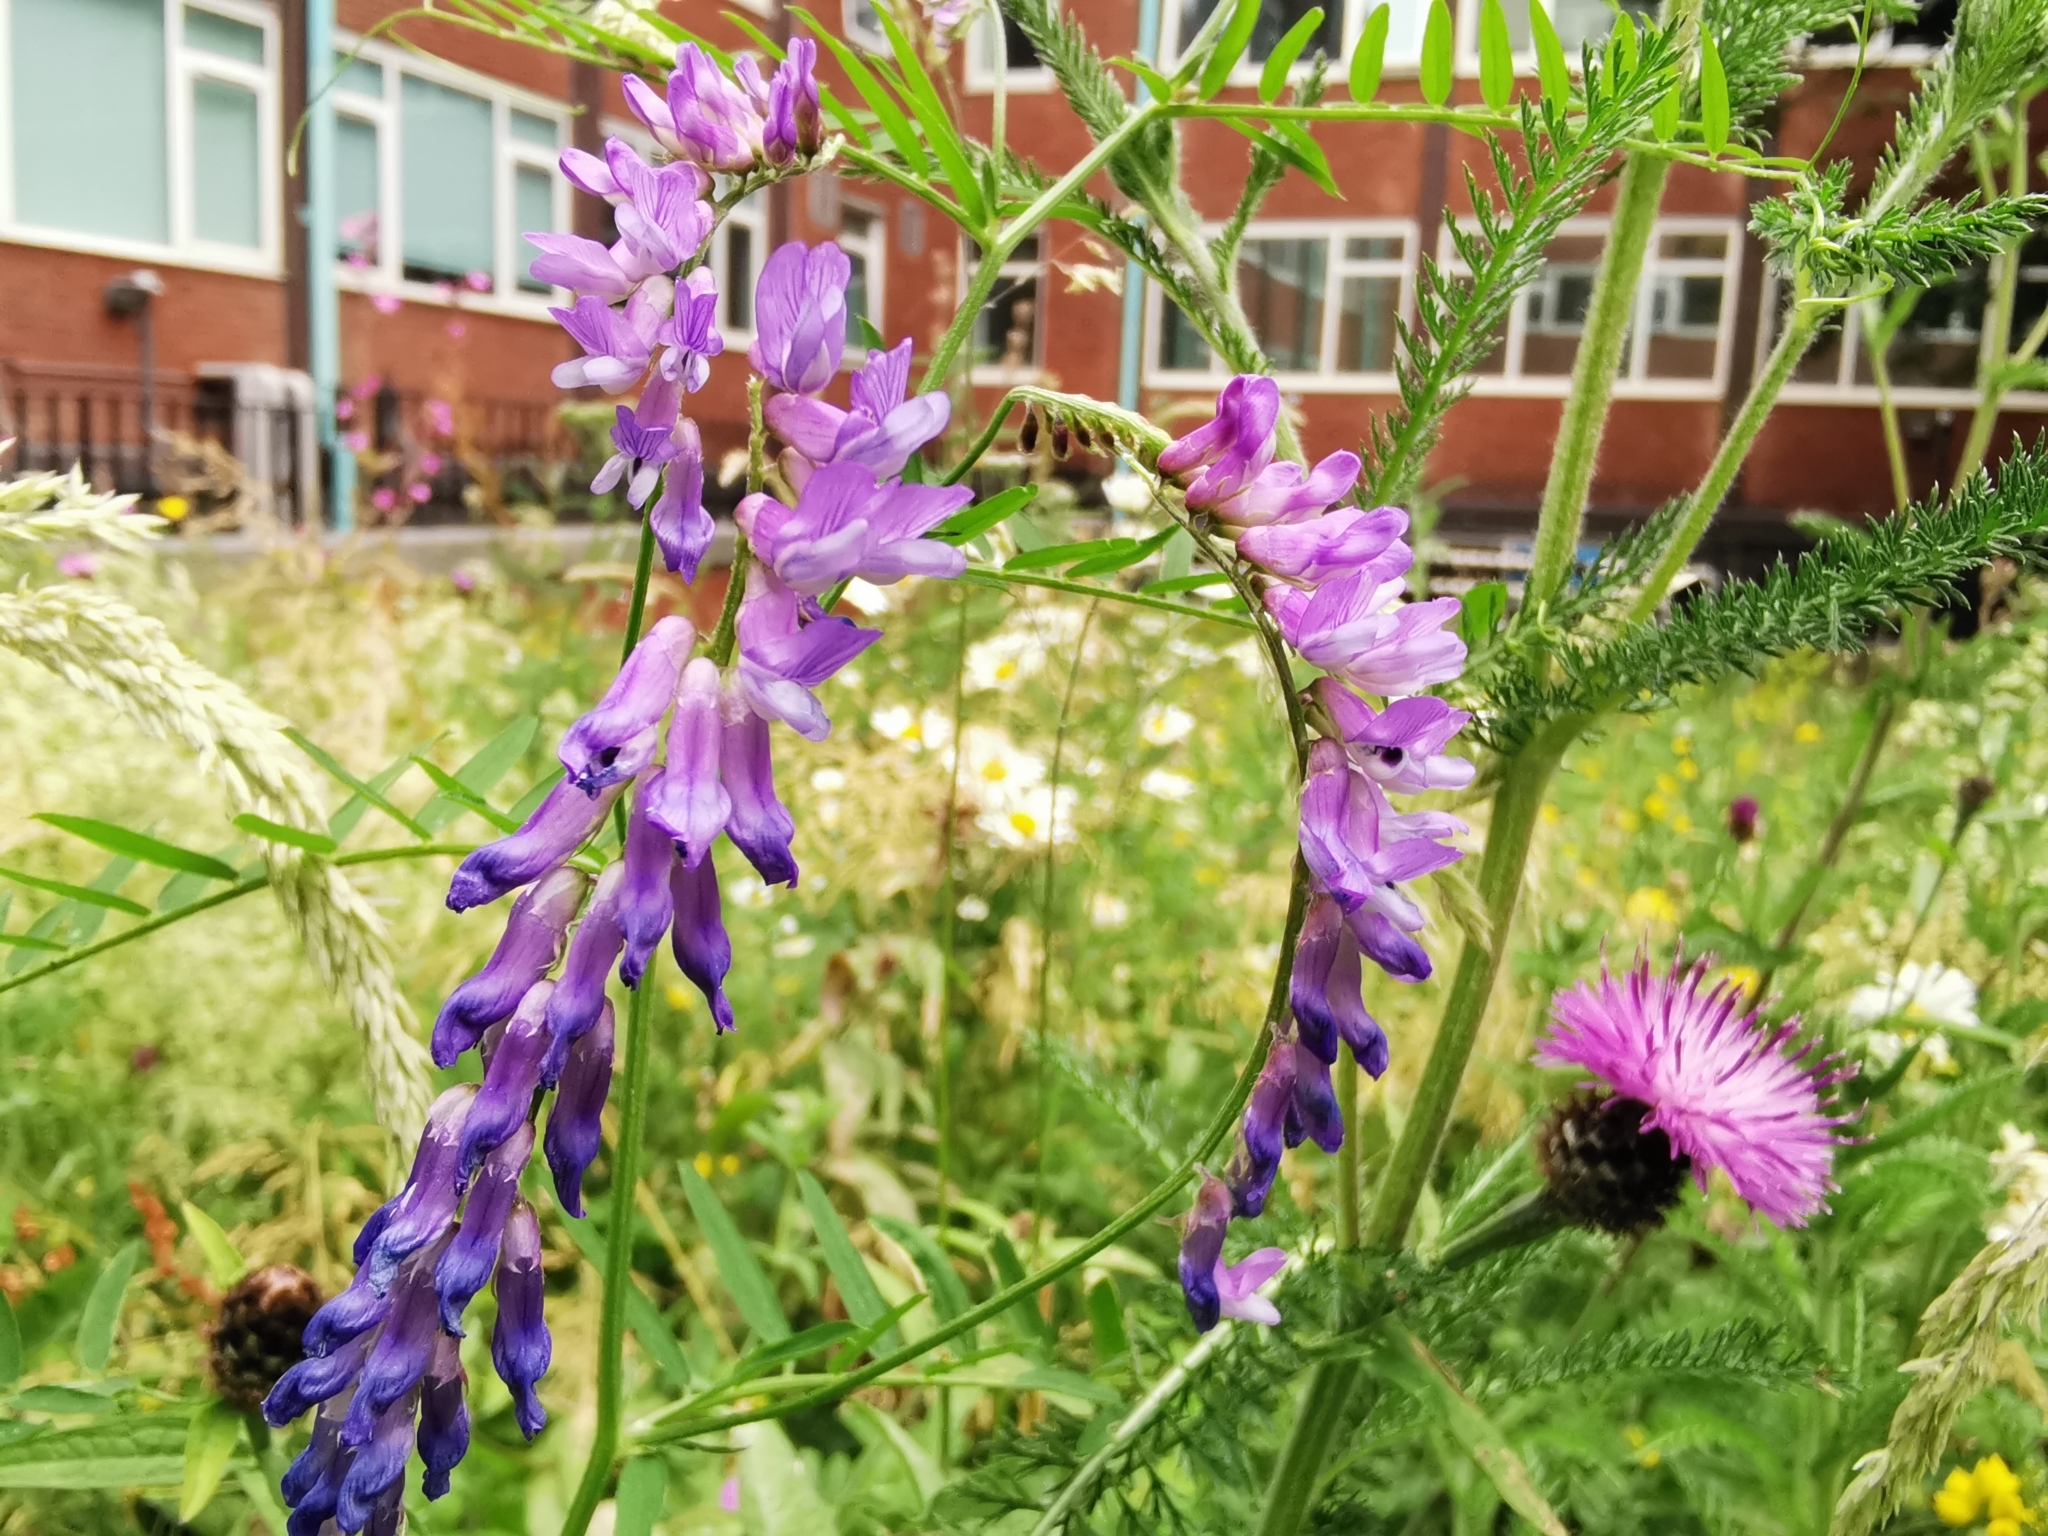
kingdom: Plantae
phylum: Tracheophyta
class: Magnoliopsida
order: Fabales
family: Fabaceae
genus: Vicia
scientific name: Vicia cracca
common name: Bird vetch
